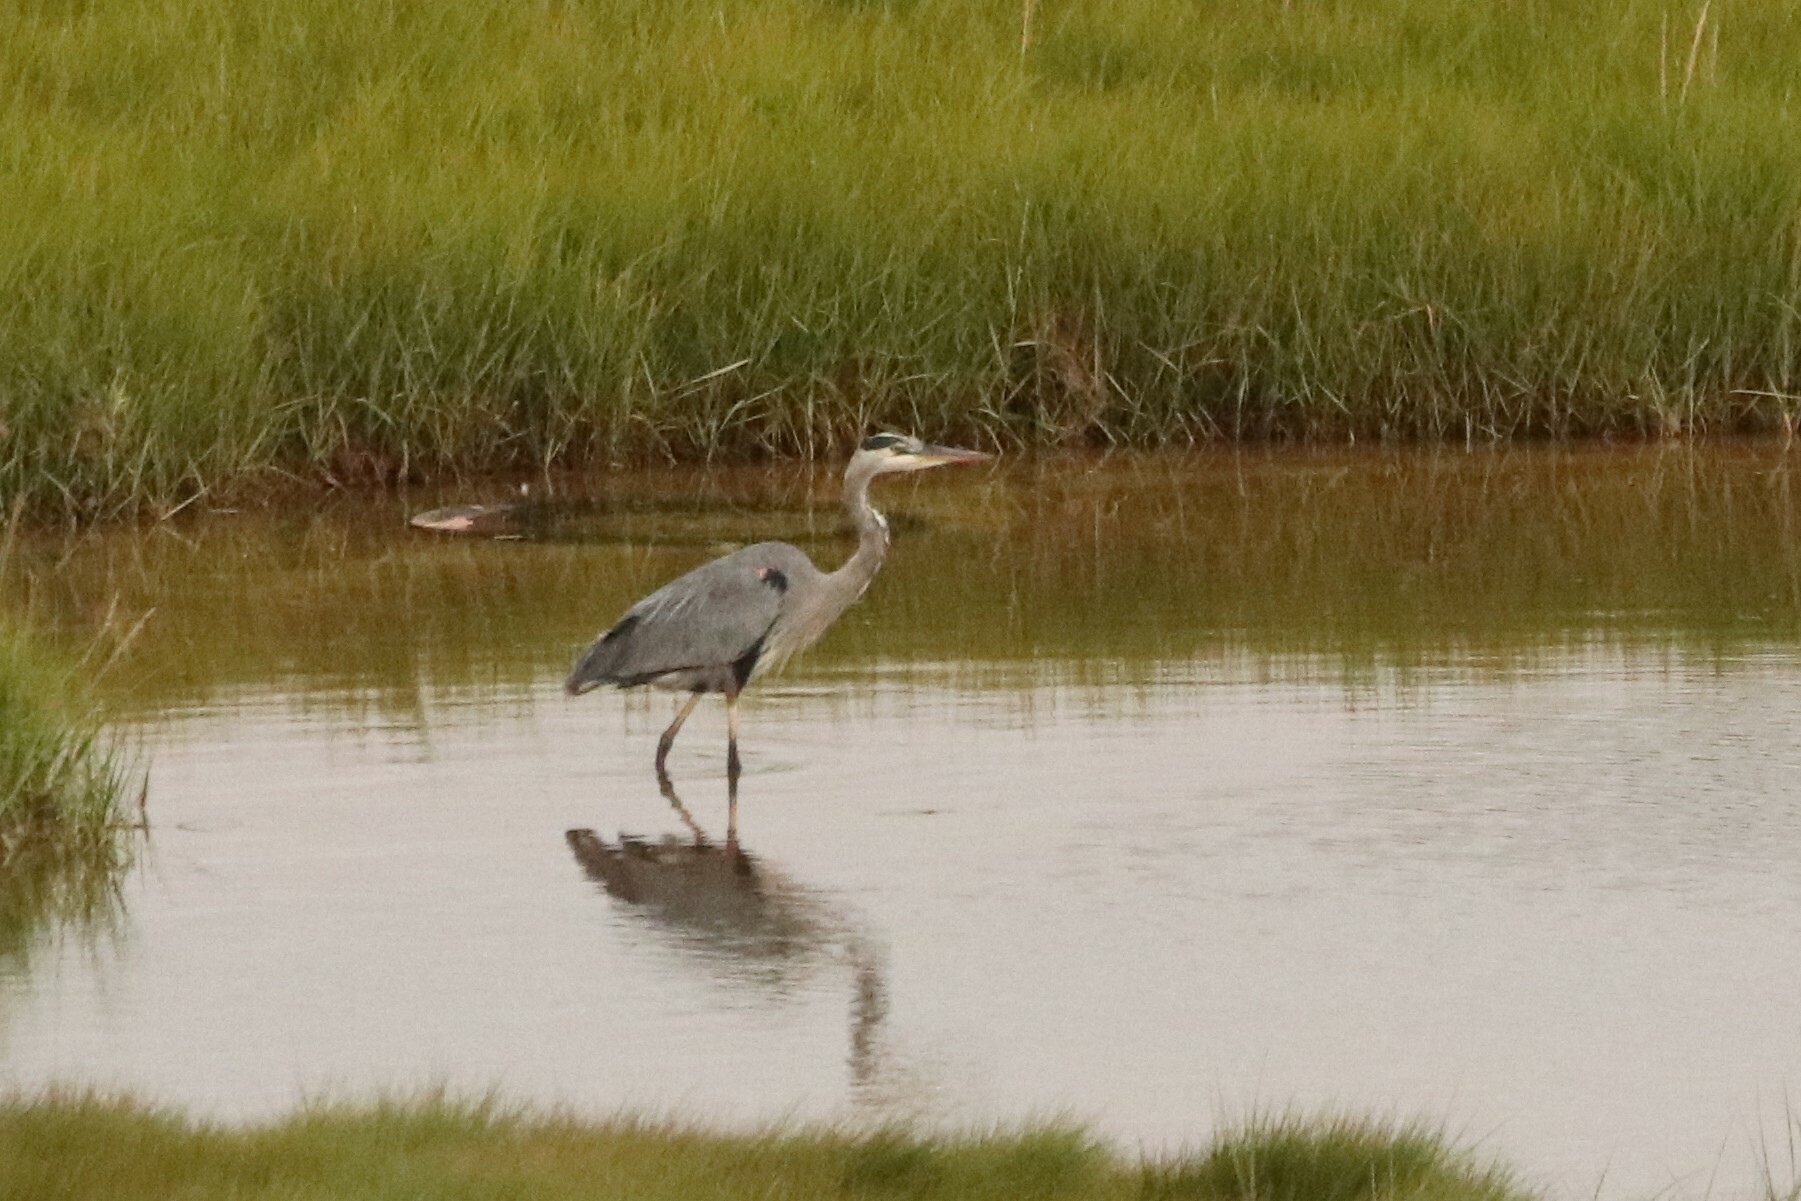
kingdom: Animalia
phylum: Chordata
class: Aves
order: Pelecaniformes
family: Ardeidae
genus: Ardea
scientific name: Ardea herodias
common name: Great blue heron
